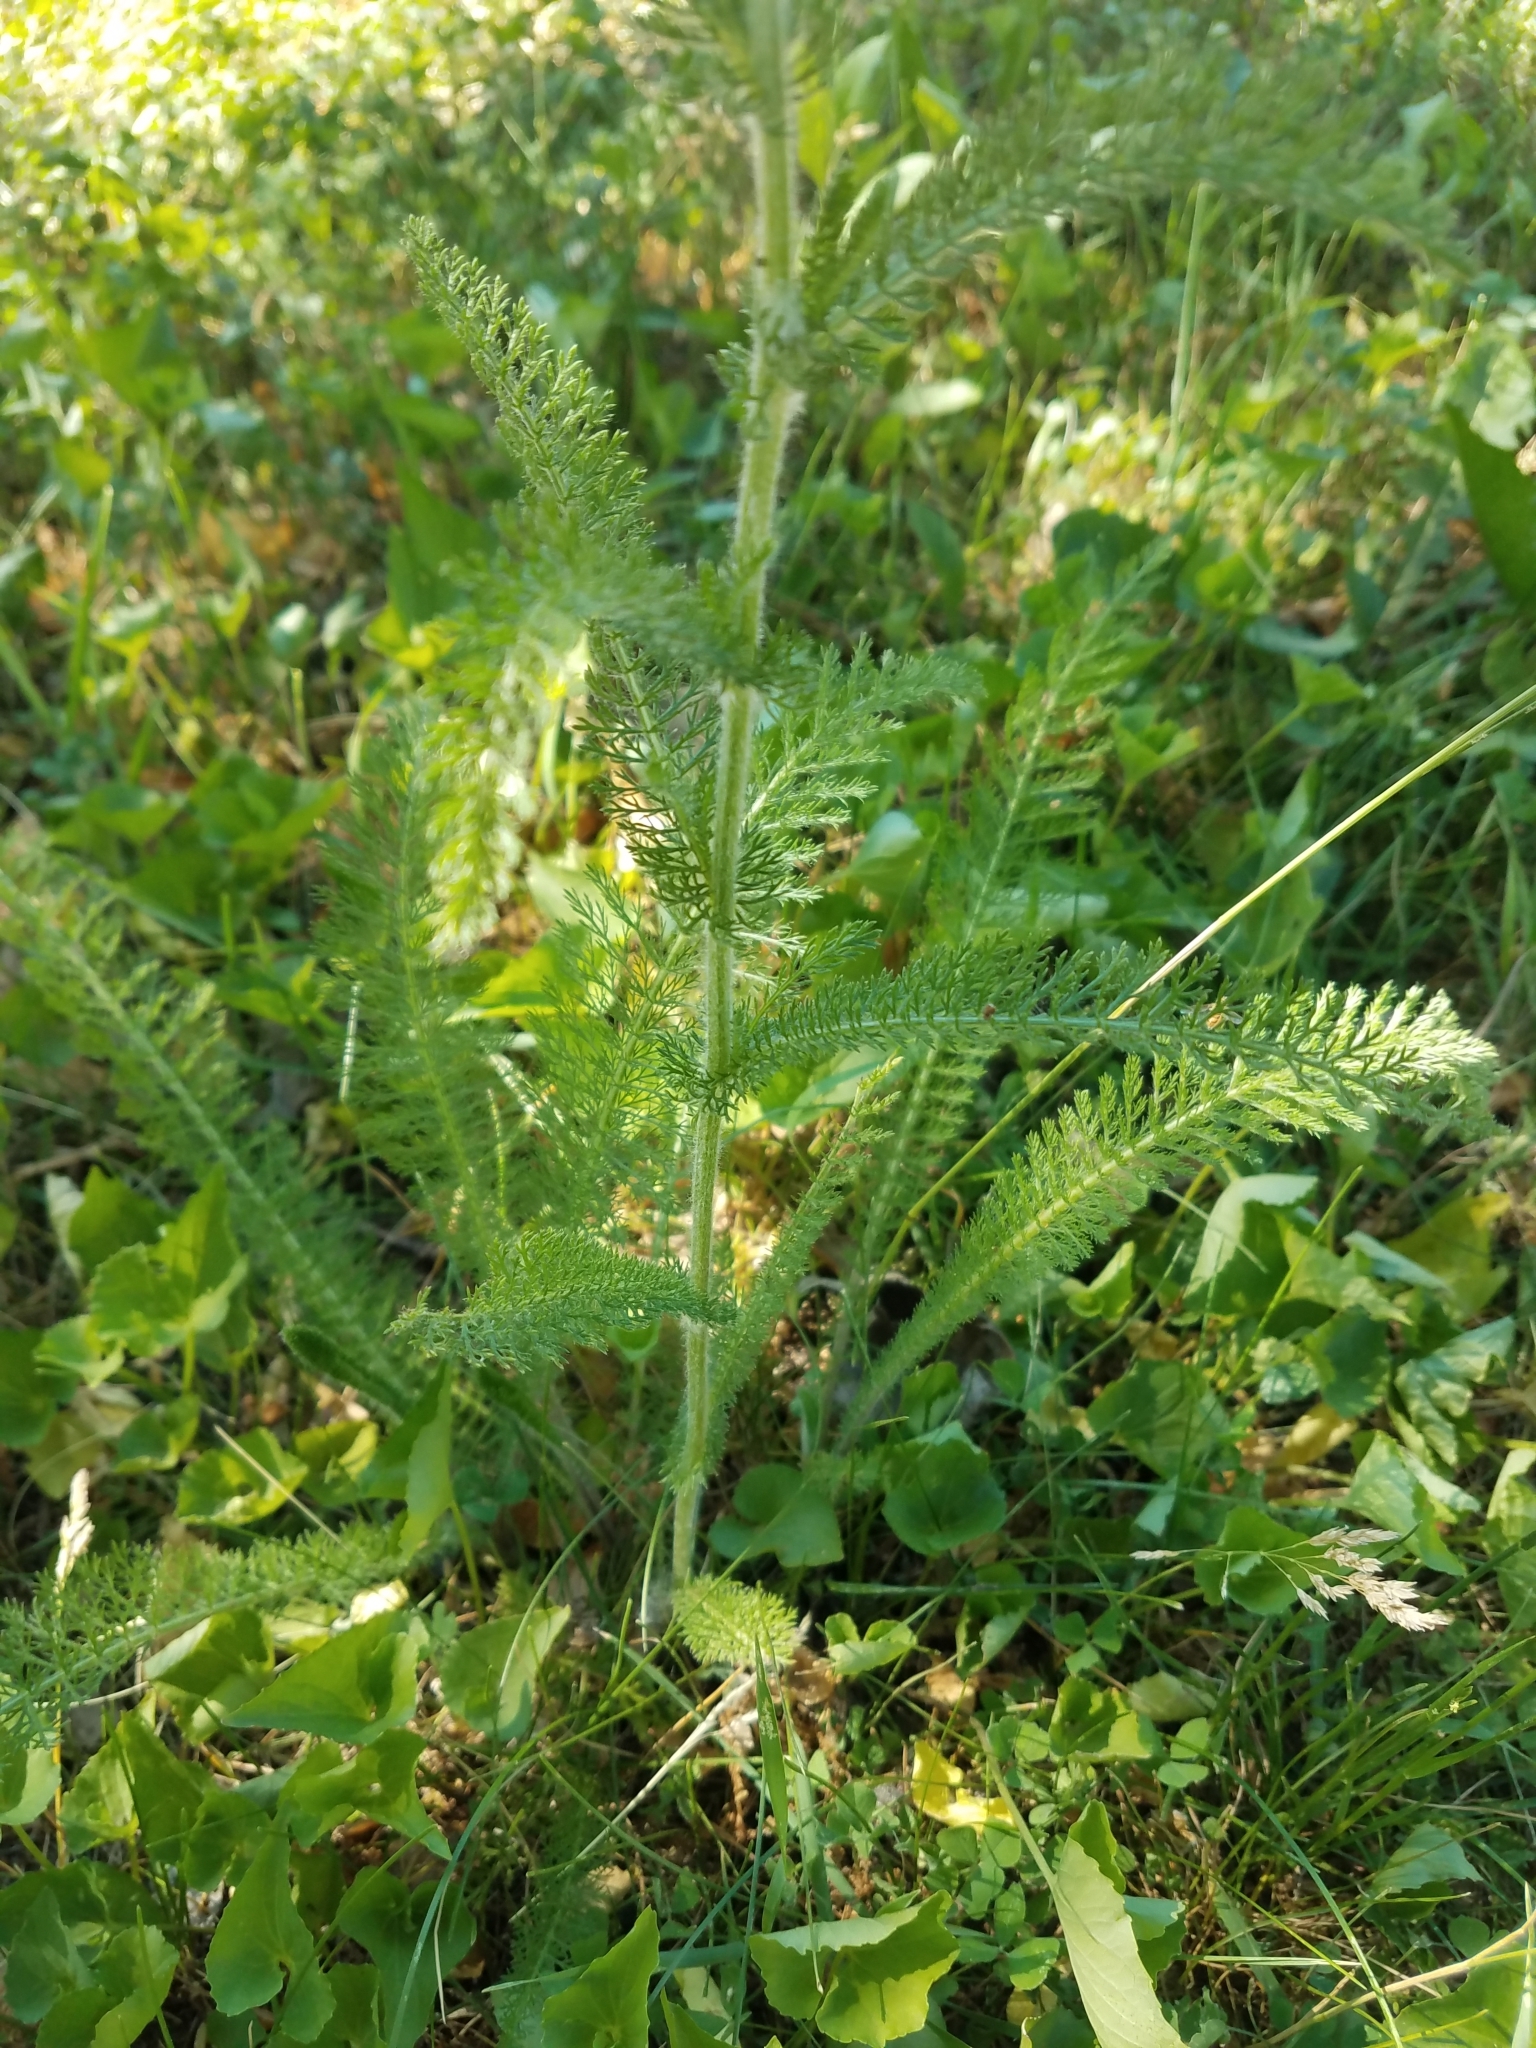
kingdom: Plantae
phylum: Tracheophyta
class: Magnoliopsida
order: Asterales
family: Asteraceae
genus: Achillea
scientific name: Achillea millefolium
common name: Yarrow
